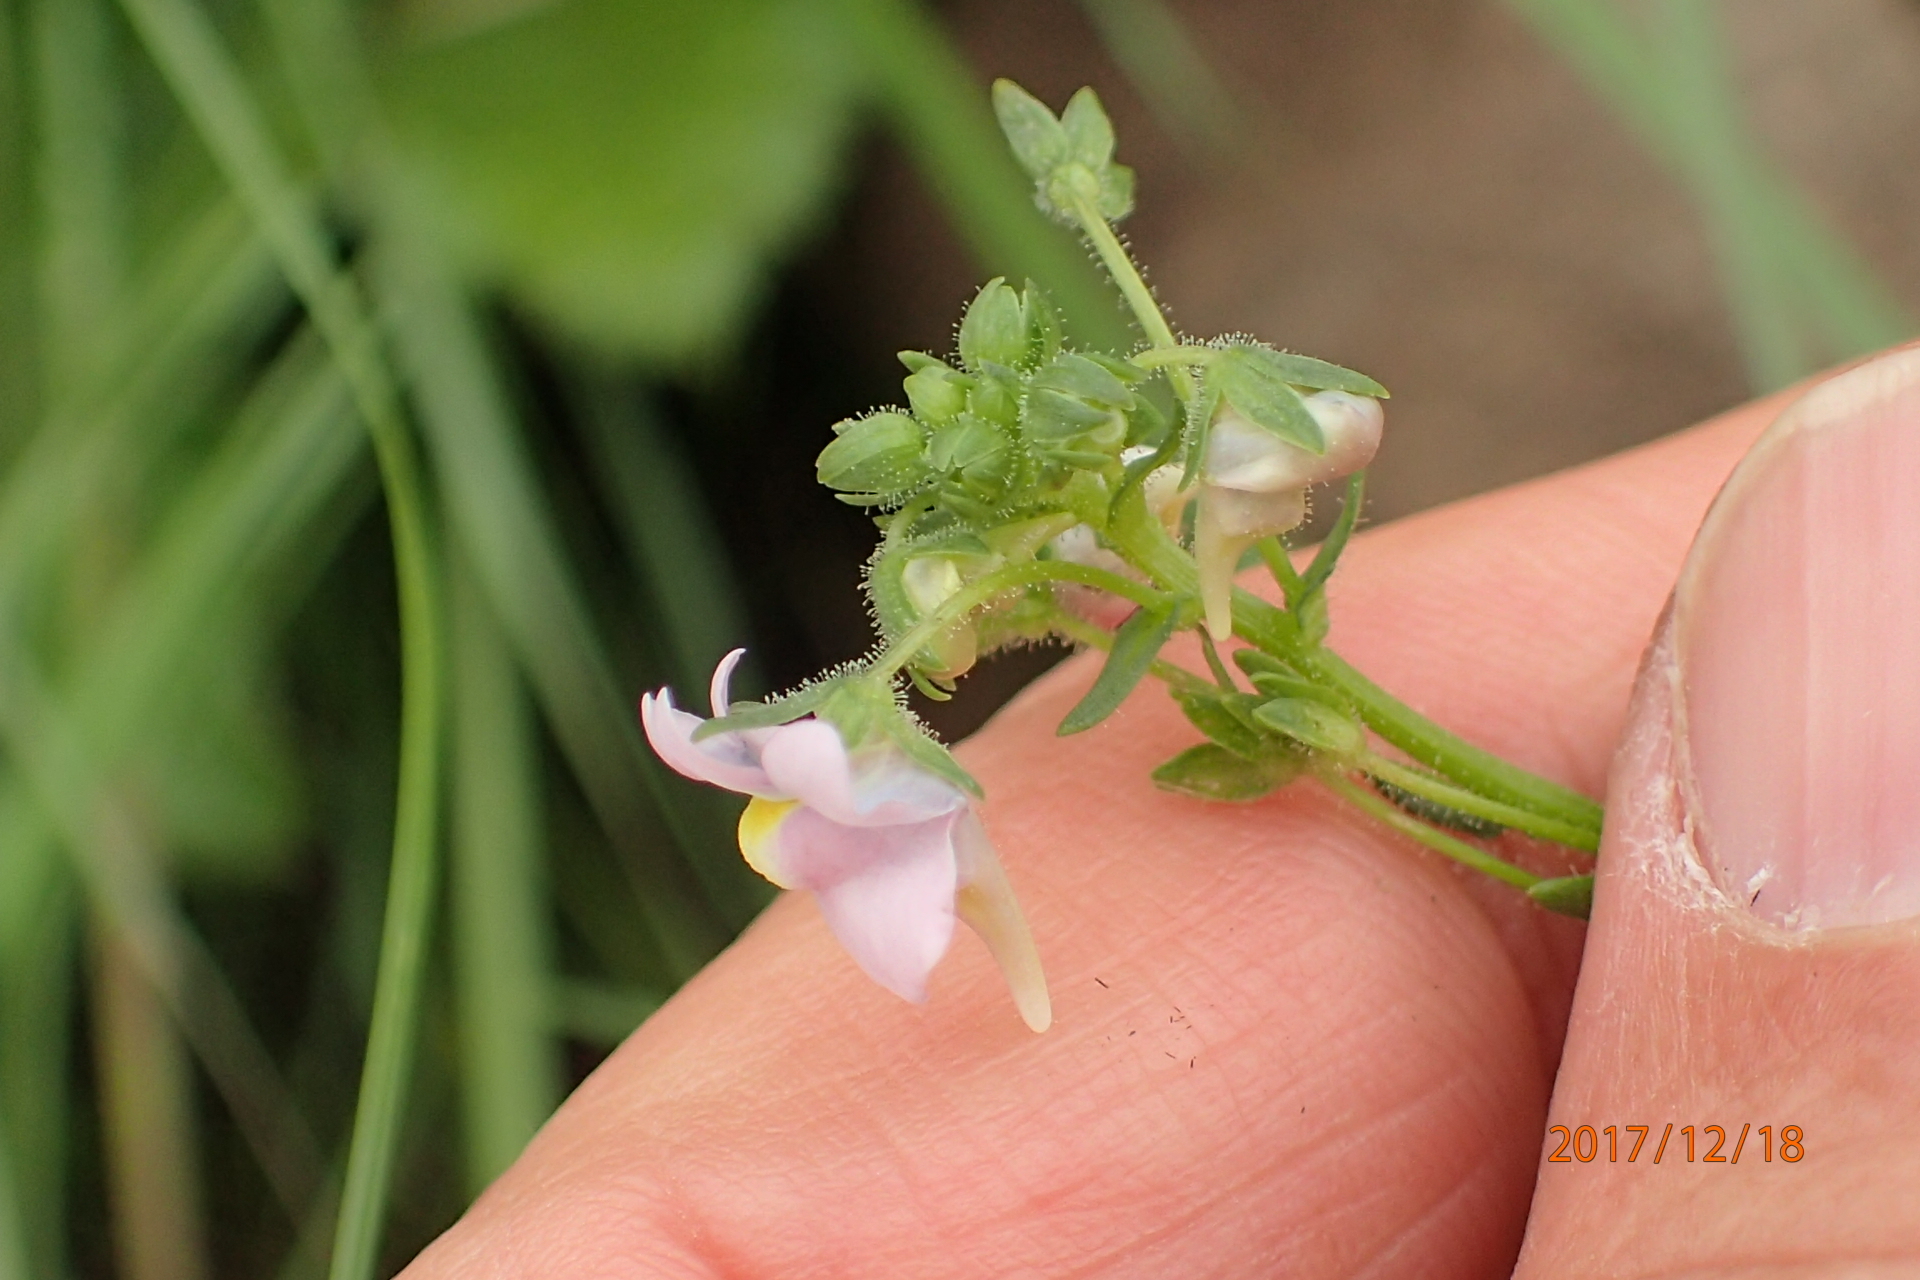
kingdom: Plantae
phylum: Tracheophyta
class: Magnoliopsida
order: Lamiales
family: Scrophulariaceae
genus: Nemesia
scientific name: Nemesia denticulata
